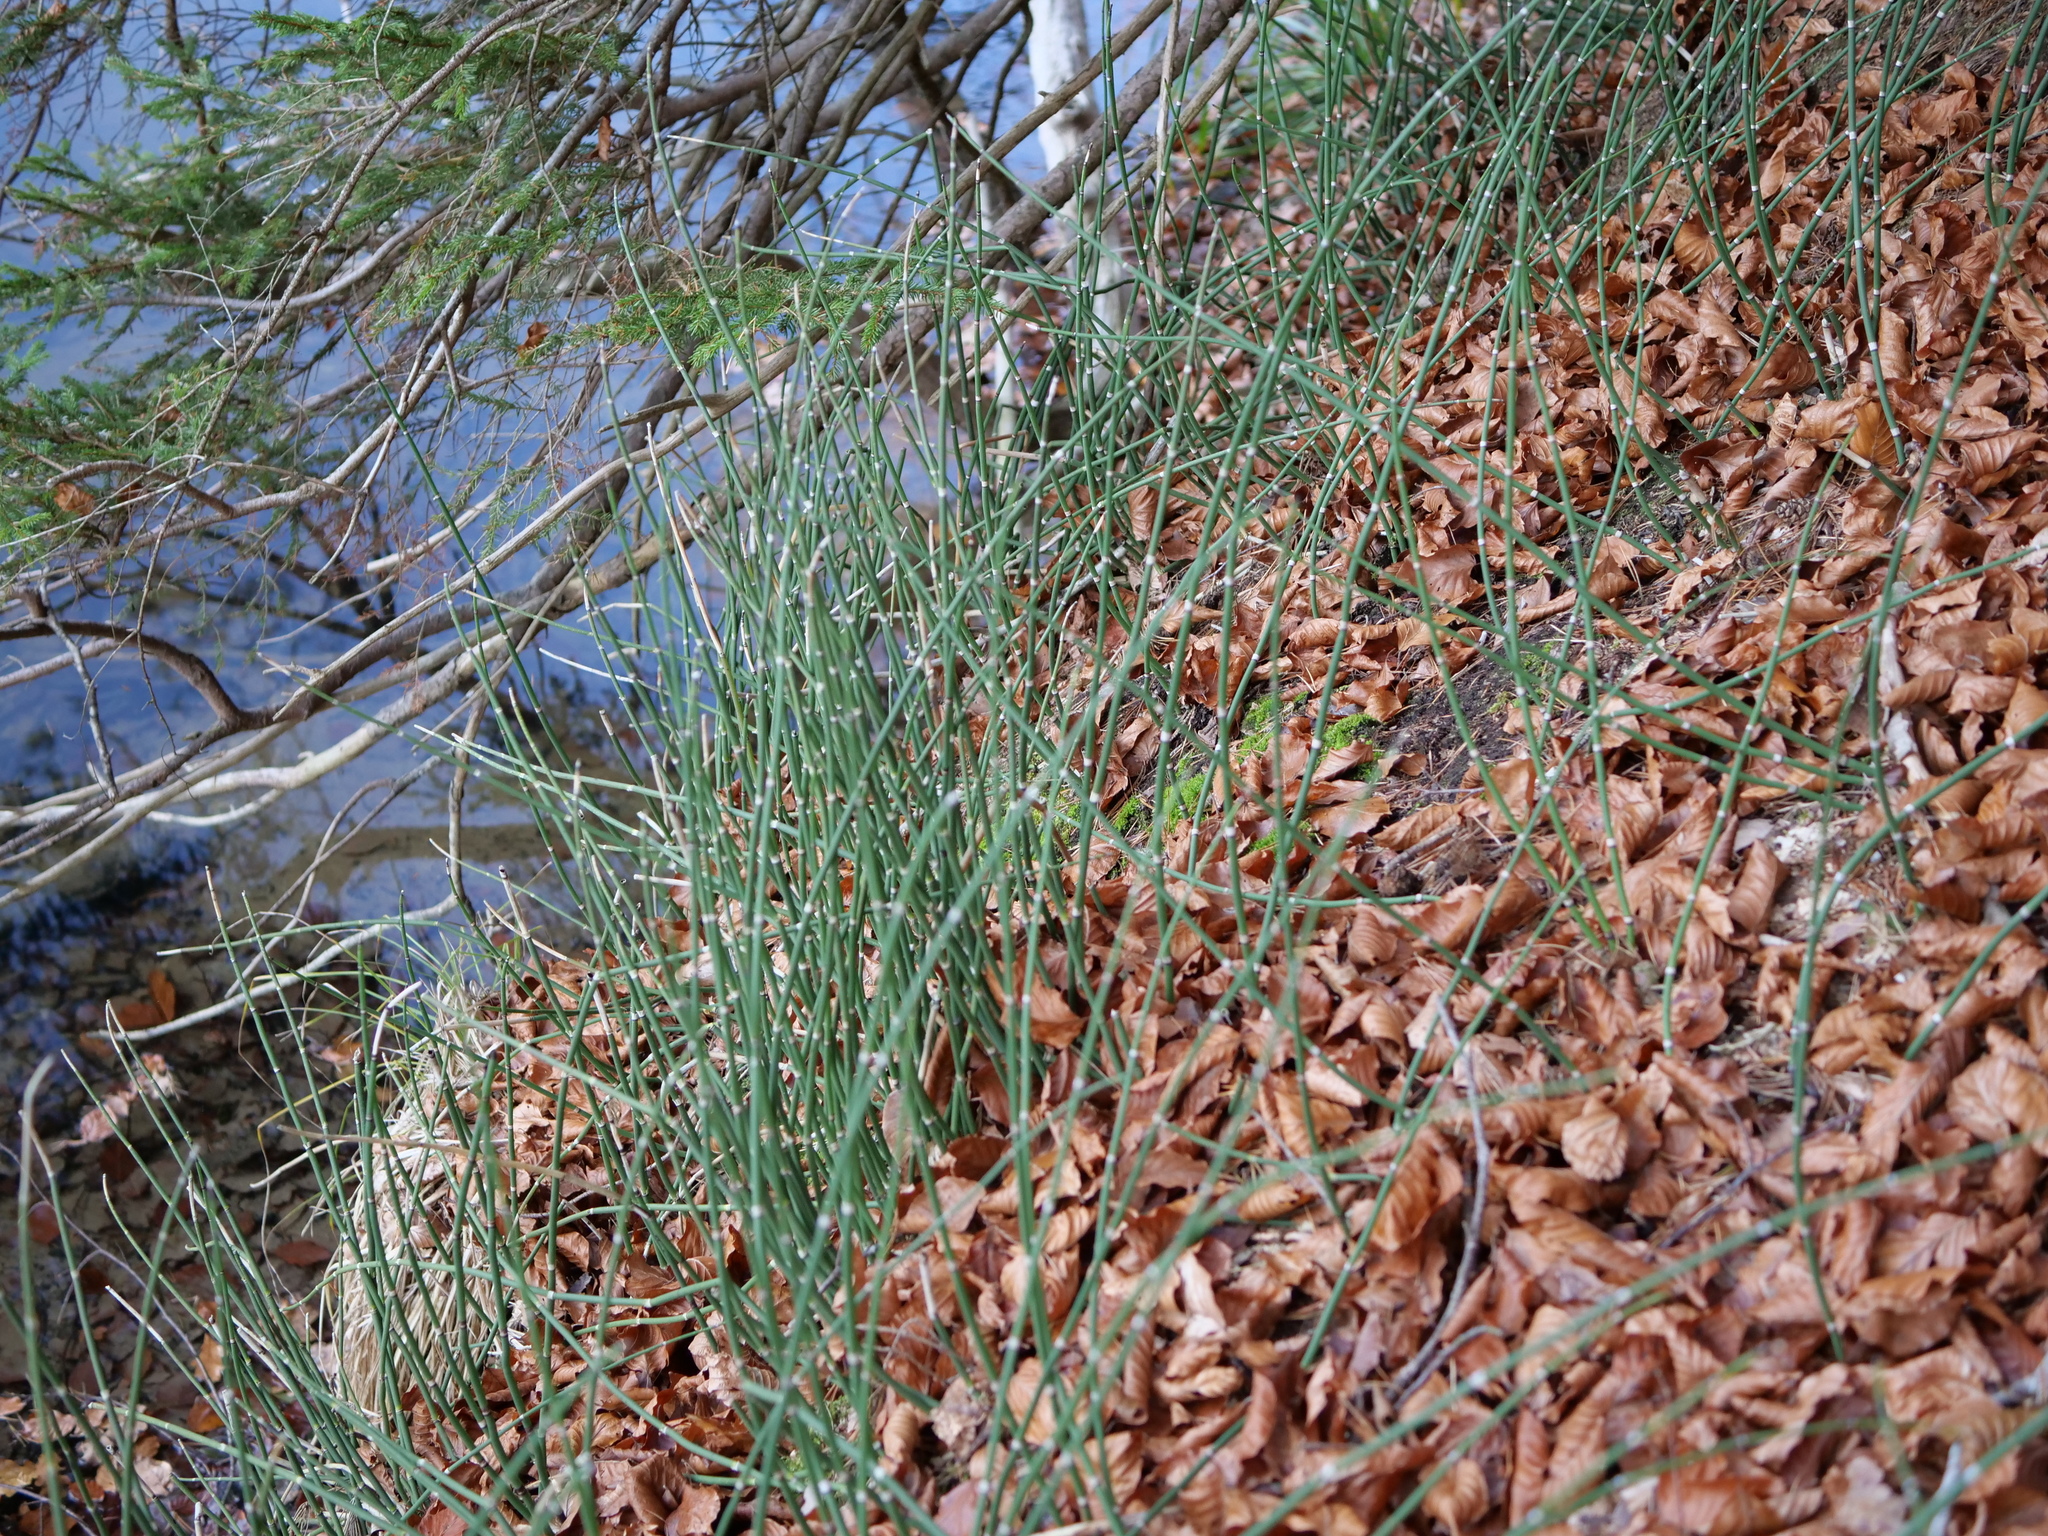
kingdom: Plantae
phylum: Tracheophyta
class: Polypodiopsida
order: Equisetales
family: Equisetaceae
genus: Equisetum
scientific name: Equisetum hyemale
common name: Rough horsetail
